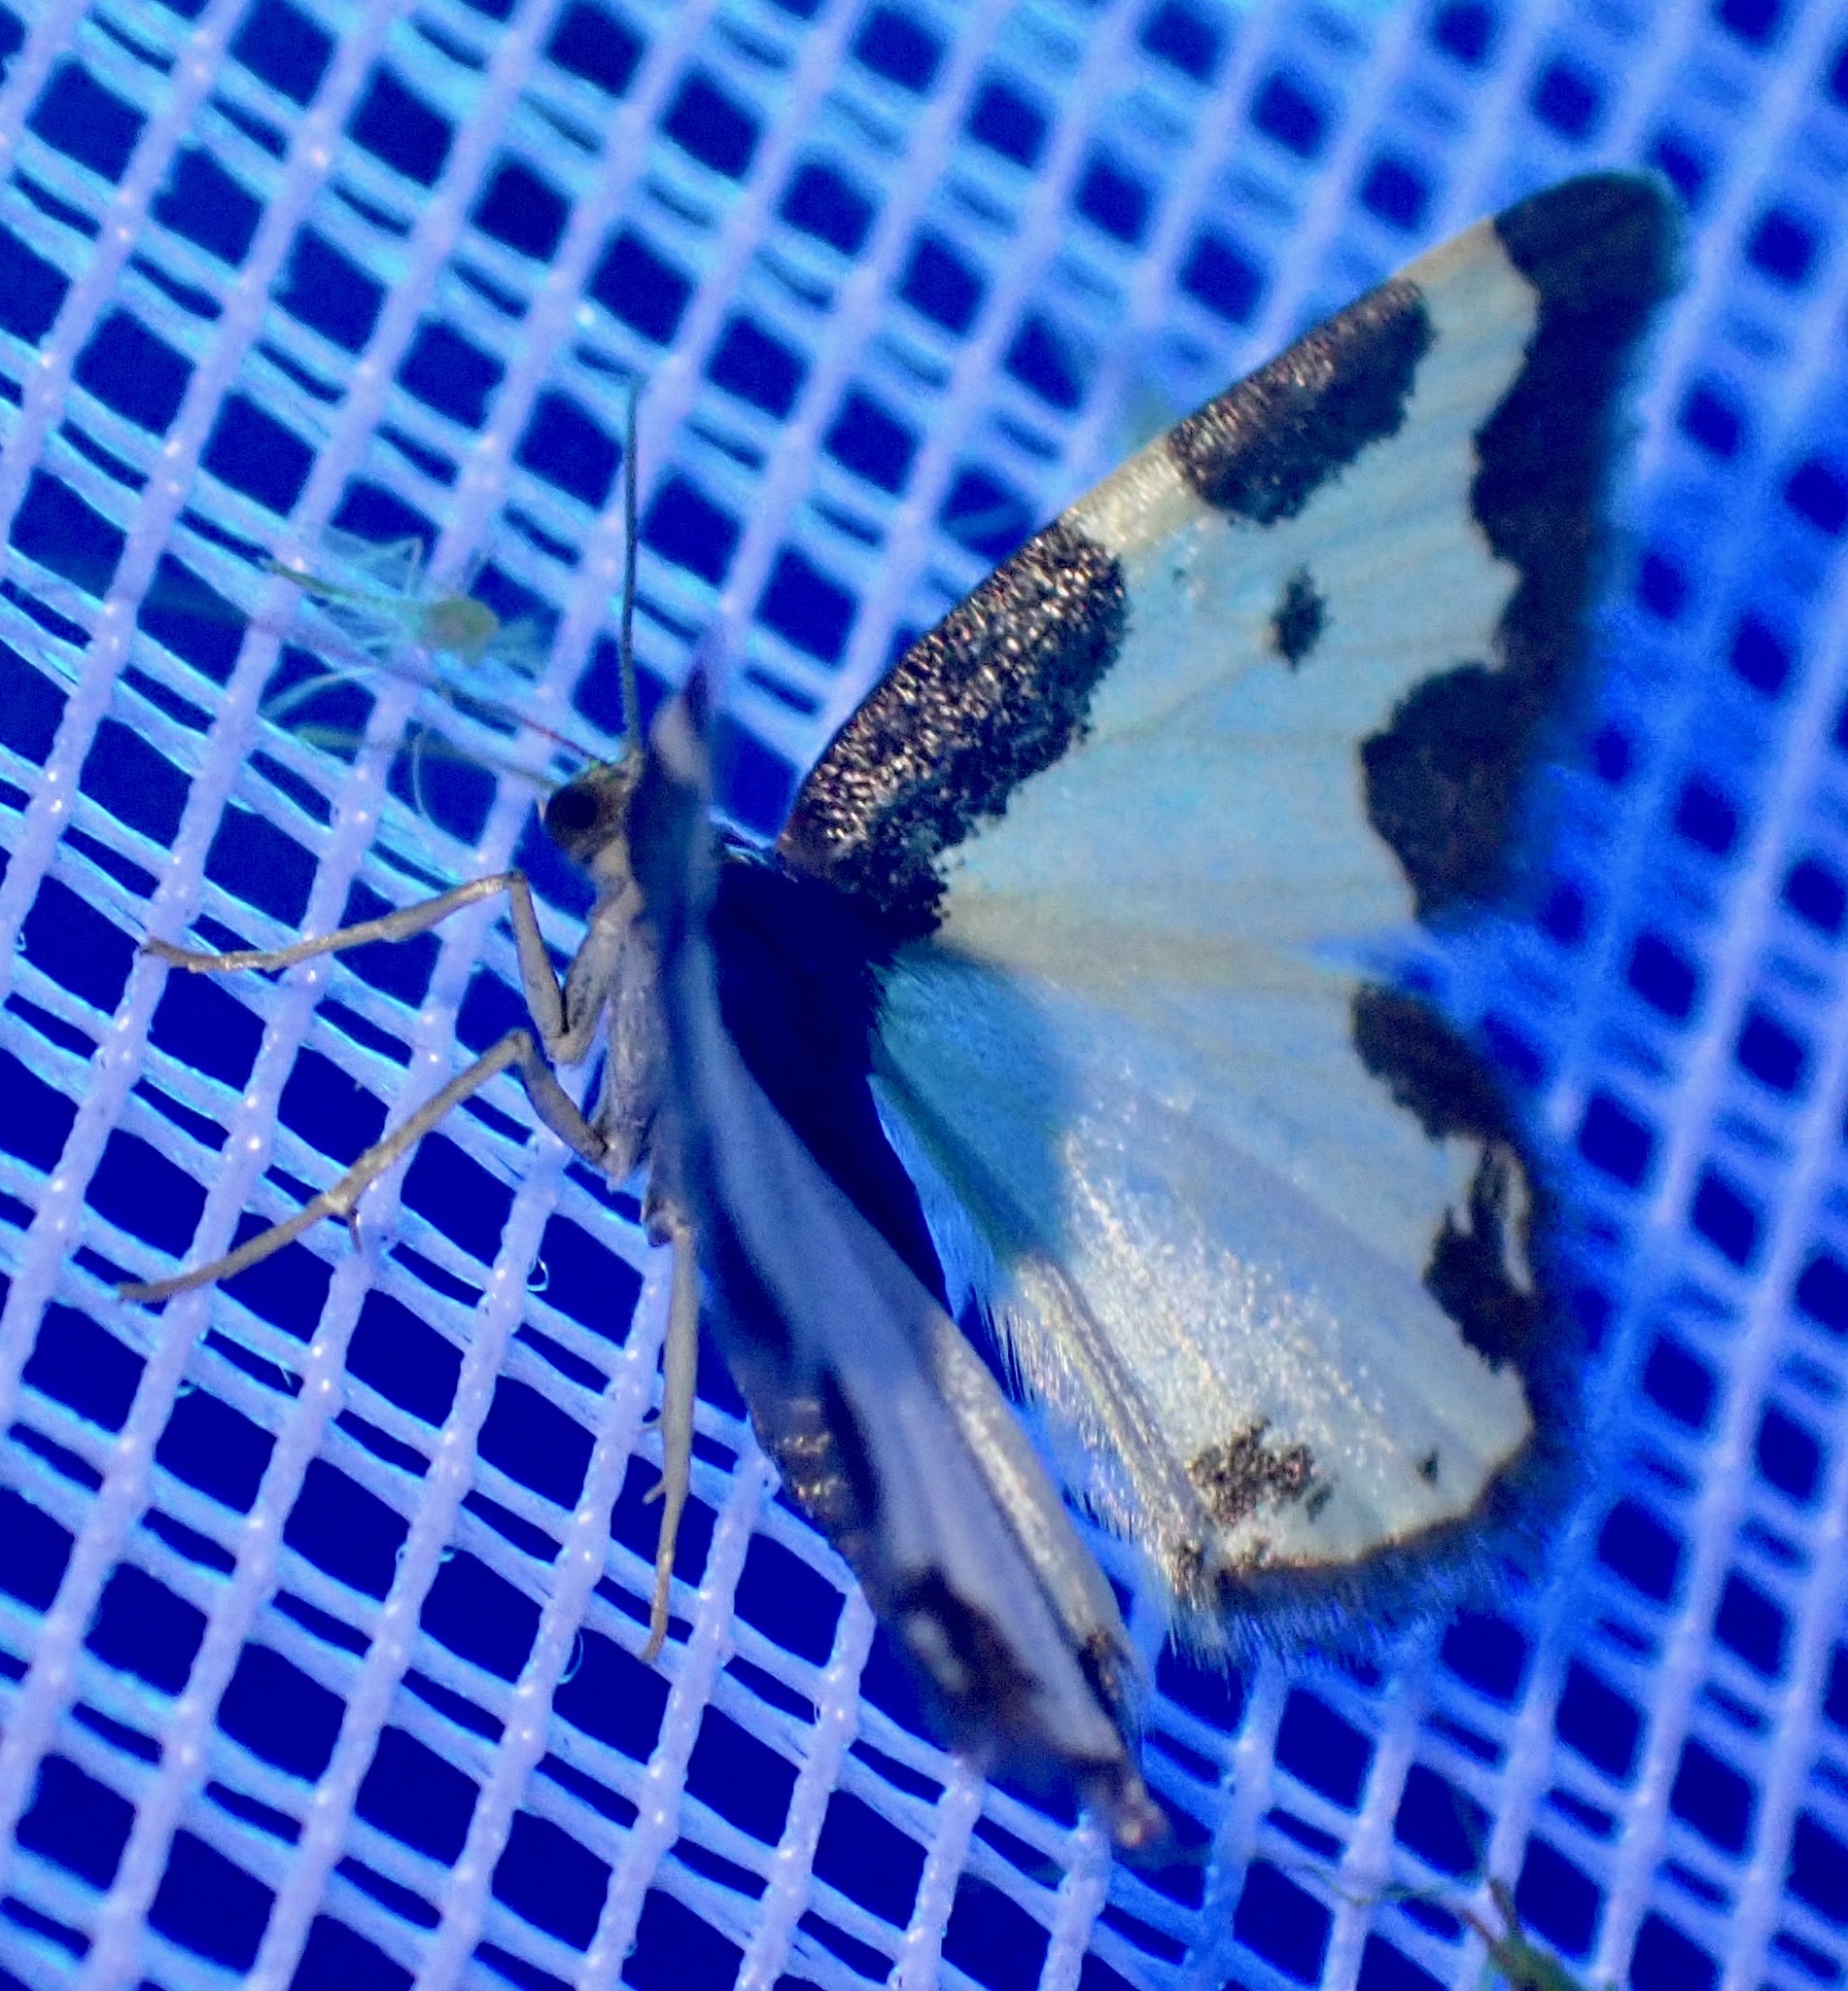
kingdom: Animalia
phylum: Arthropoda
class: Insecta
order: Lepidoptera
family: Geometridae
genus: Lomaspilis
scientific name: Lomaspilis marginata
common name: Clouded border
